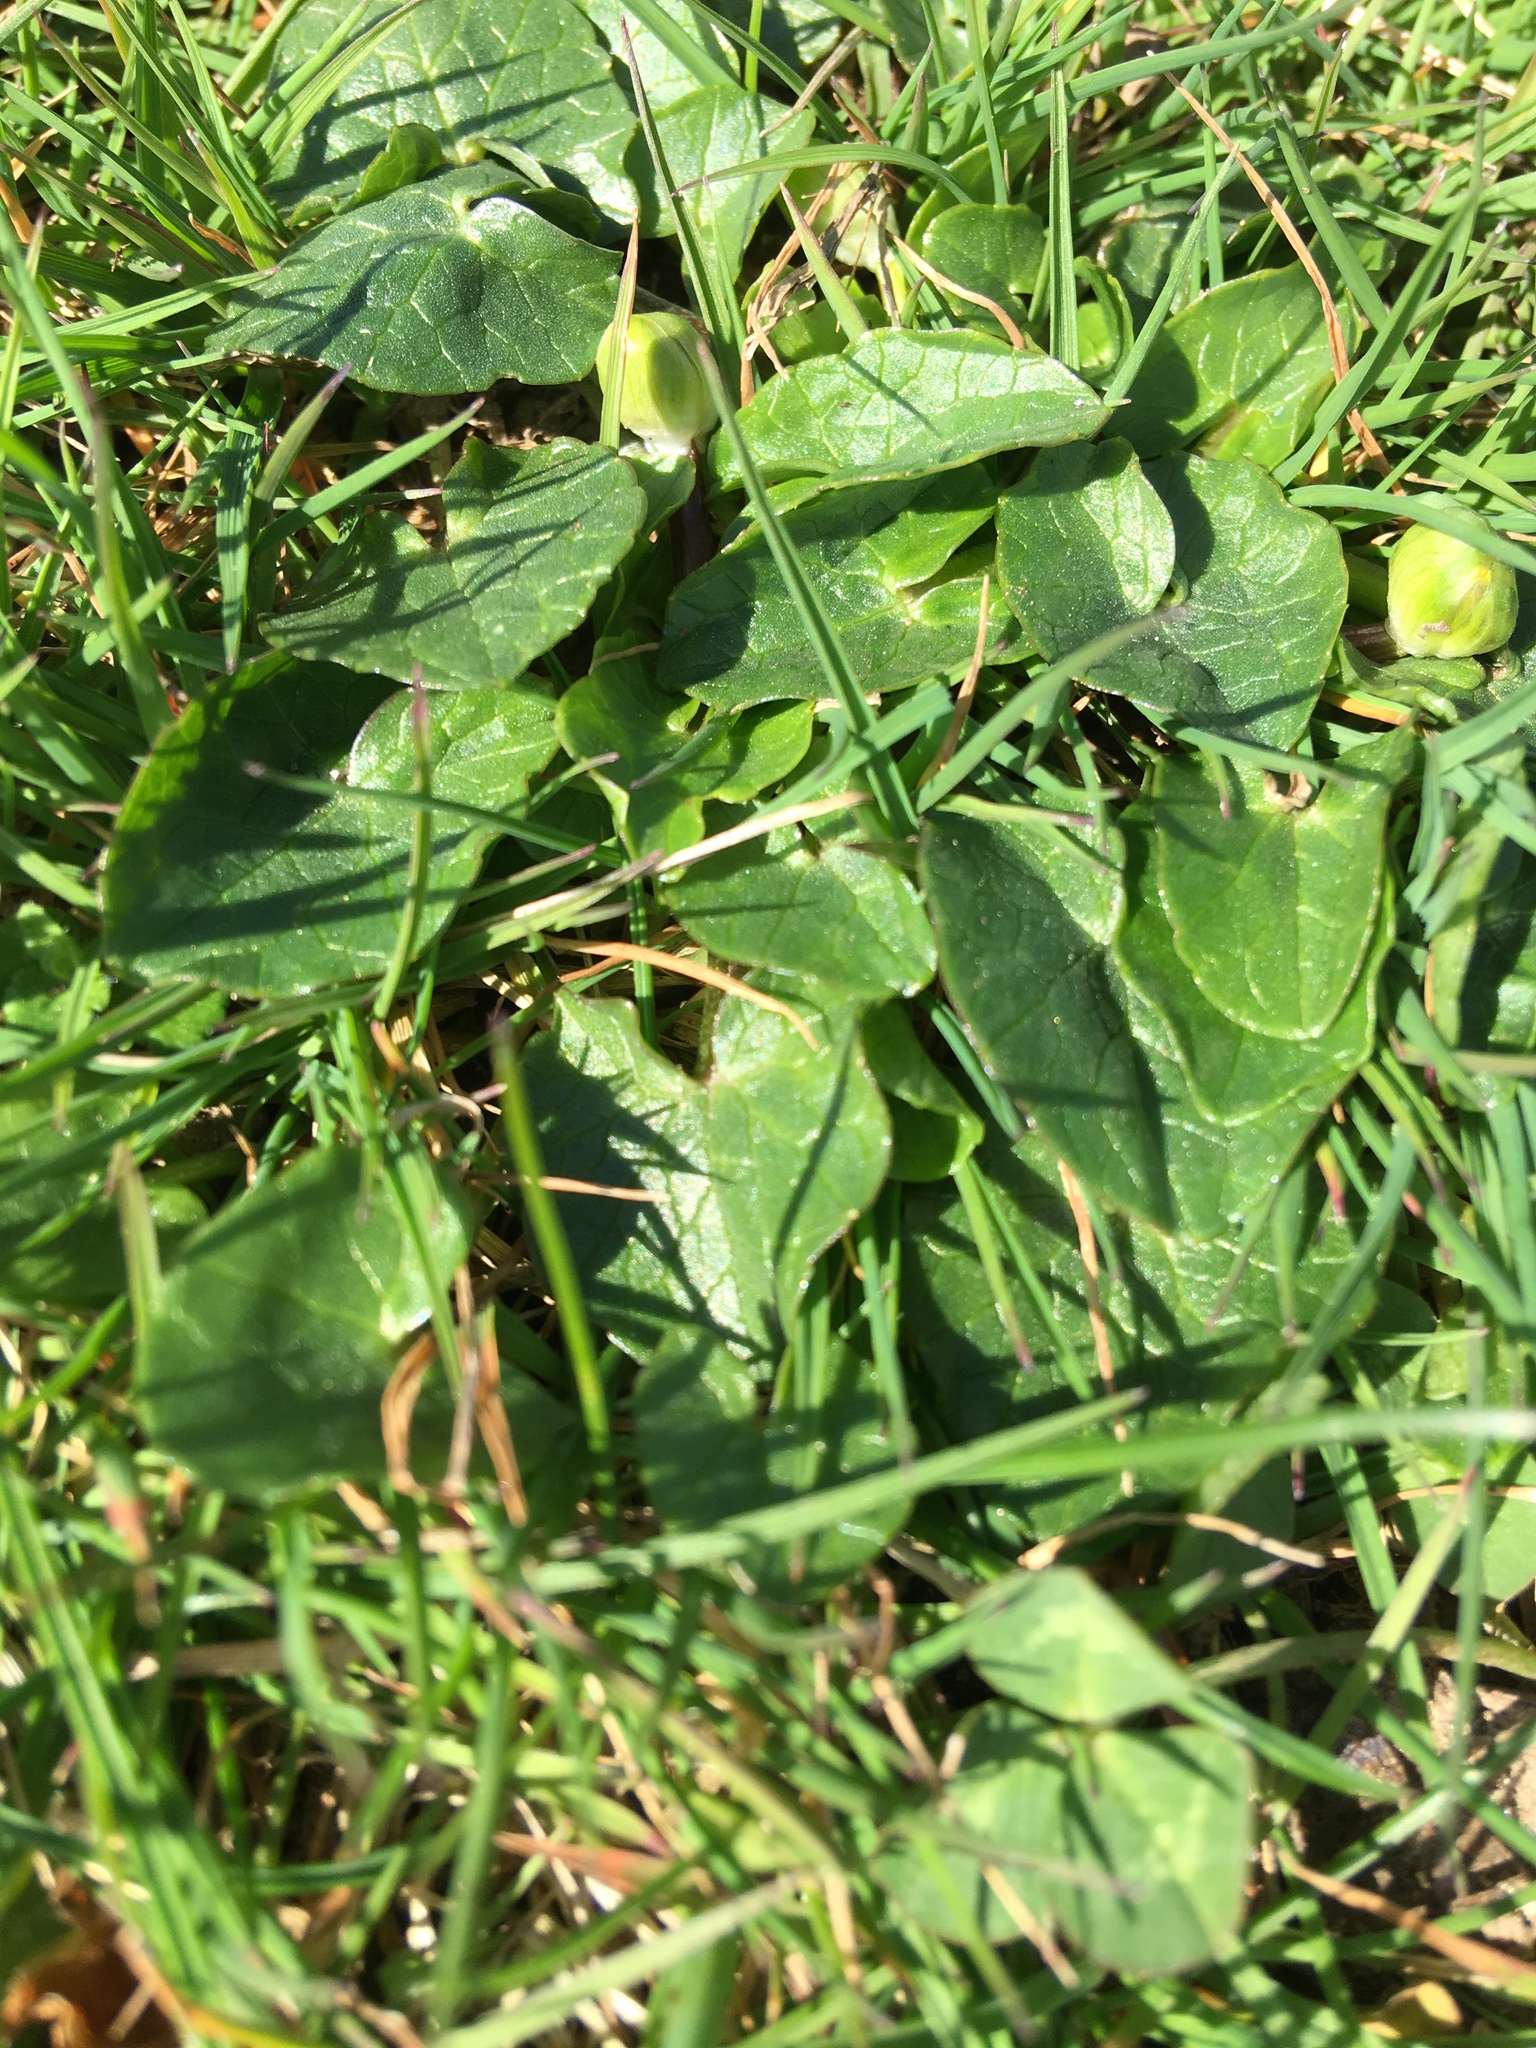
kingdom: Plantae
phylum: Tracheophyta
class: Magnoliopsida
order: Ranunculales
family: Ranunculaceae
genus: Ficaria
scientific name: Ficaria verna
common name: Lesser celandine
